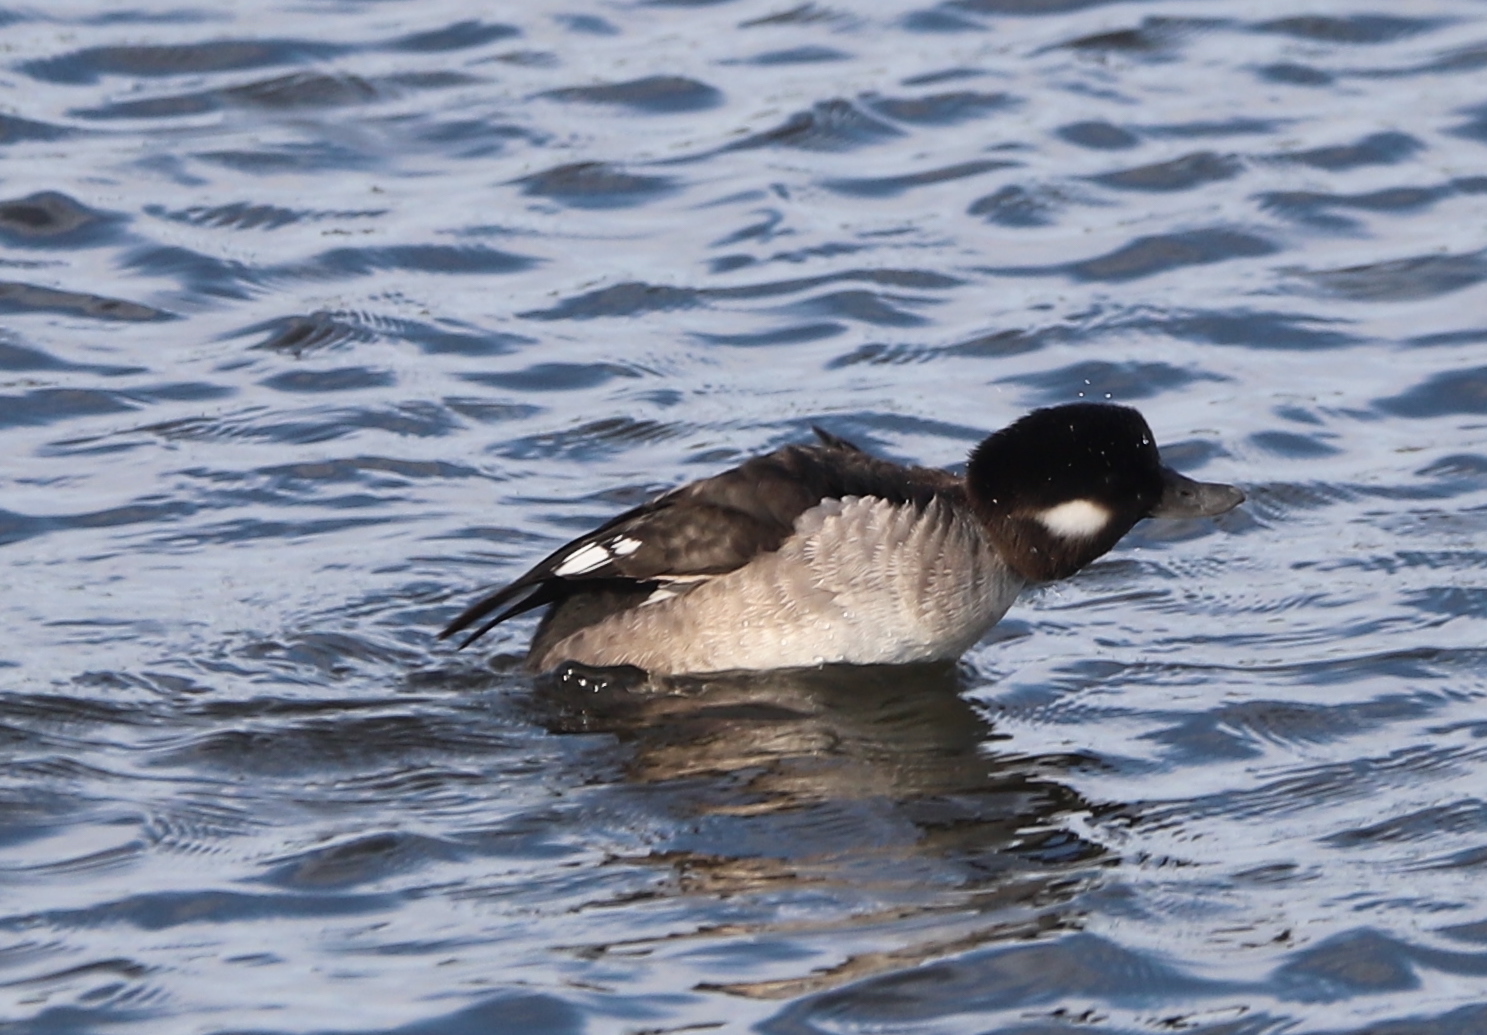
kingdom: Animalia
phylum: Chordata
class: Aves
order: Anseriformes
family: Anatidae
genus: Bucephala
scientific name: Bucephala albeola
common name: Bufflehead
